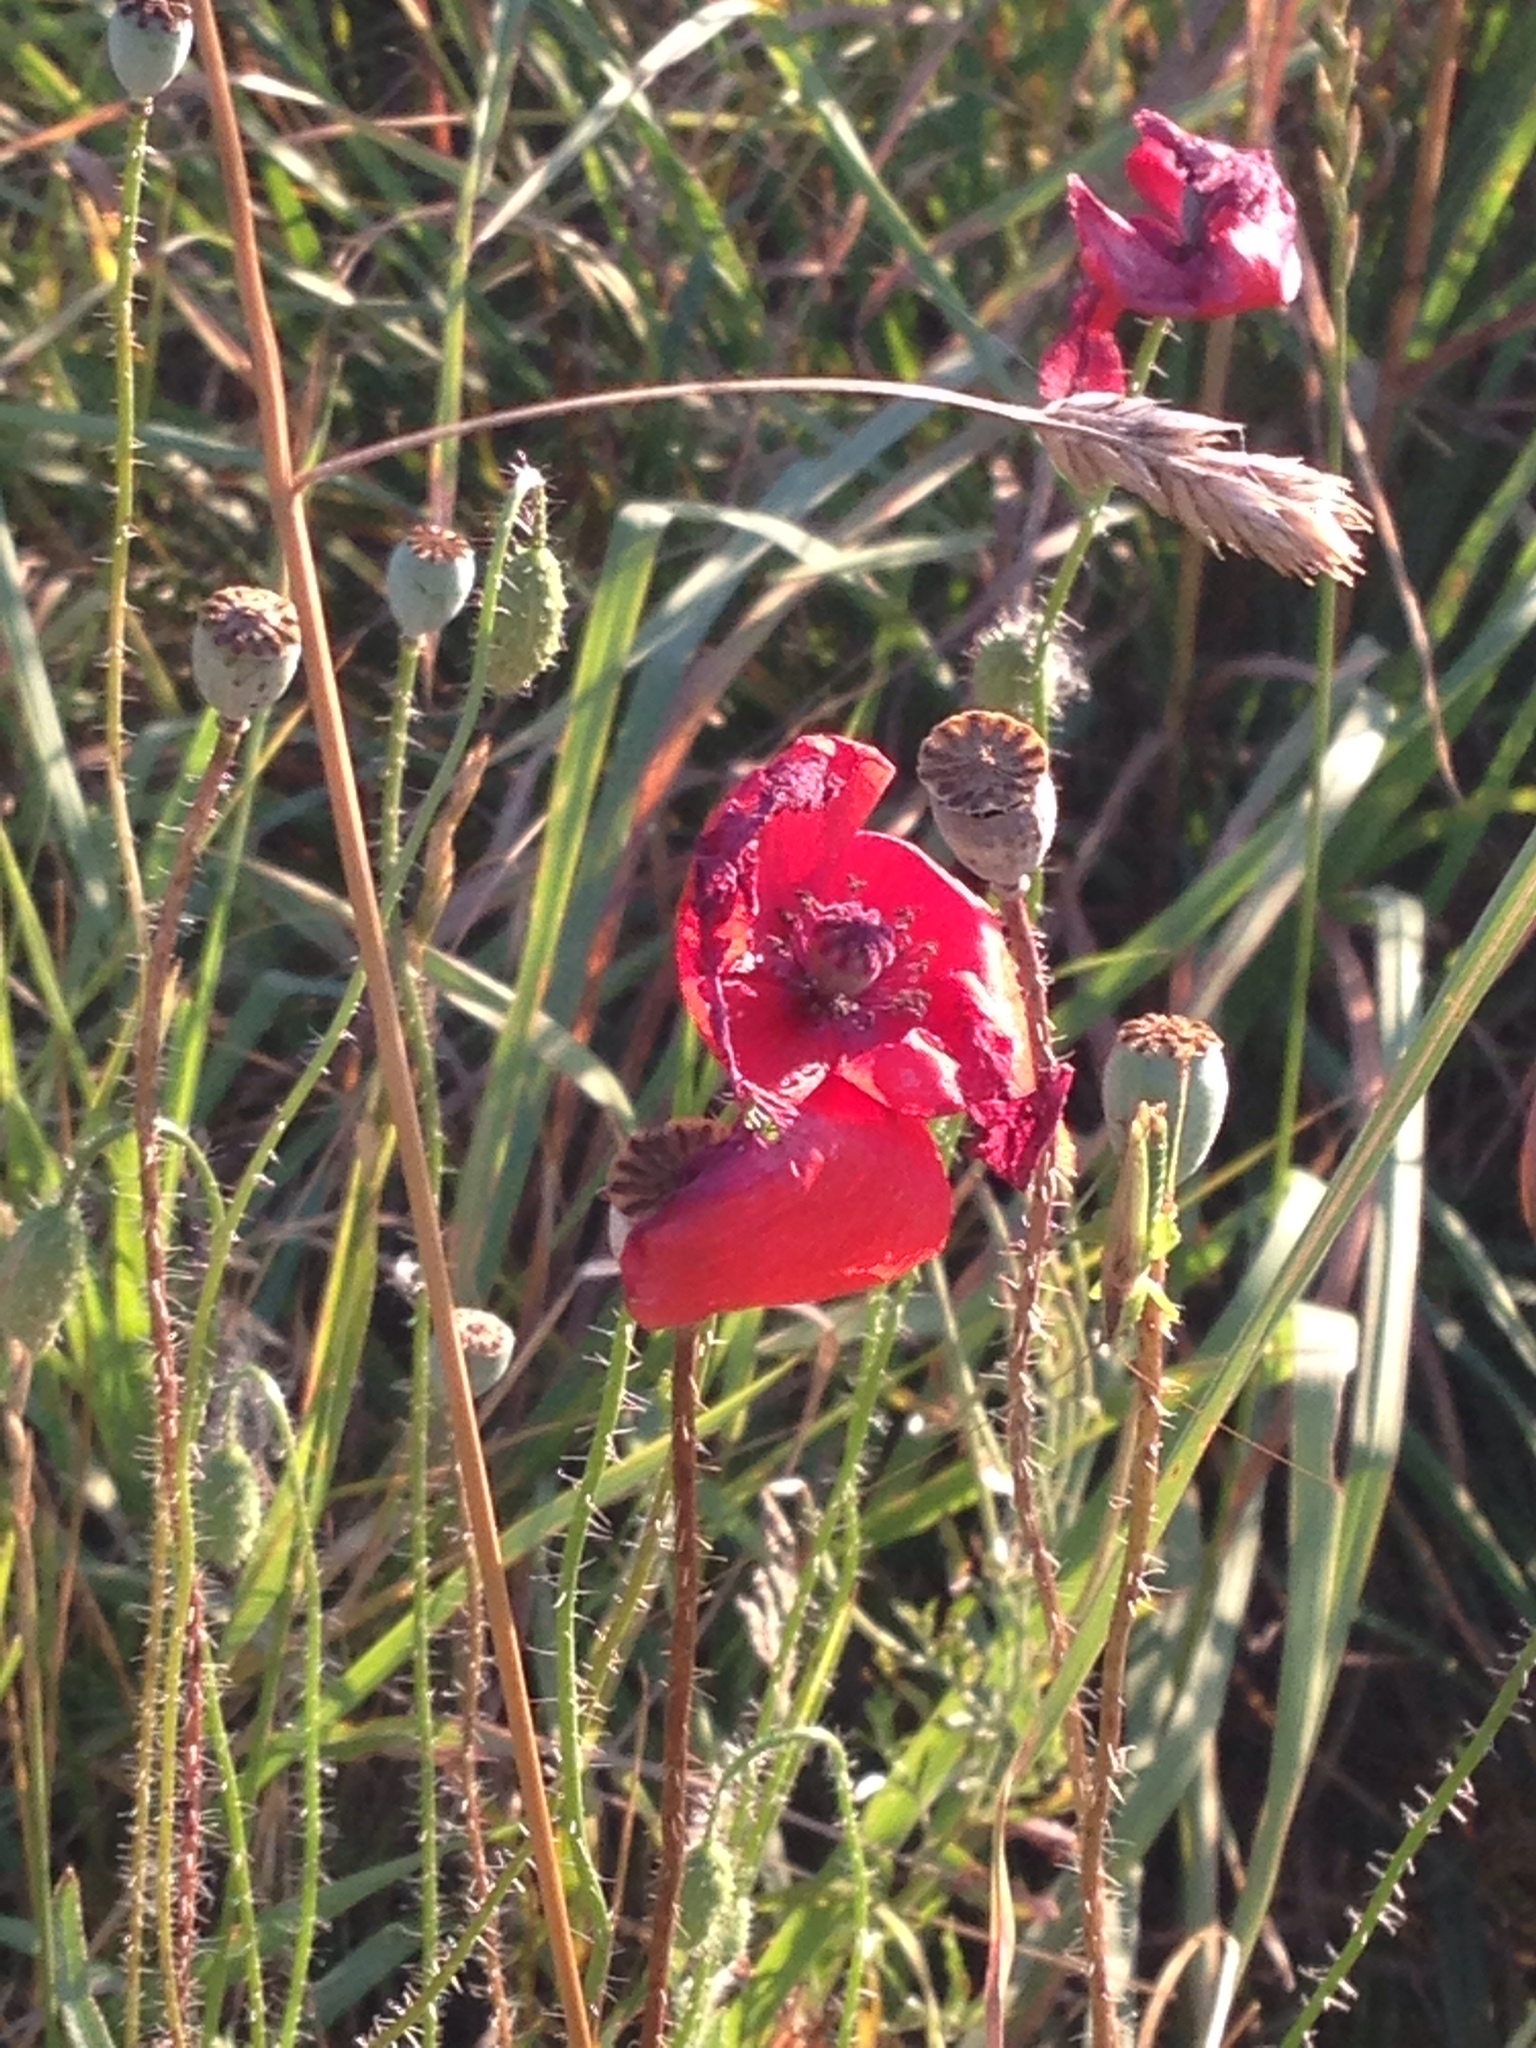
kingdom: Plantae
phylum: Tracheophyta
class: Magnoliopsida
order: Ranunculales
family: Papaveraceae
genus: Papaver
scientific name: Papaver rhoeas
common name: Corn poppy
